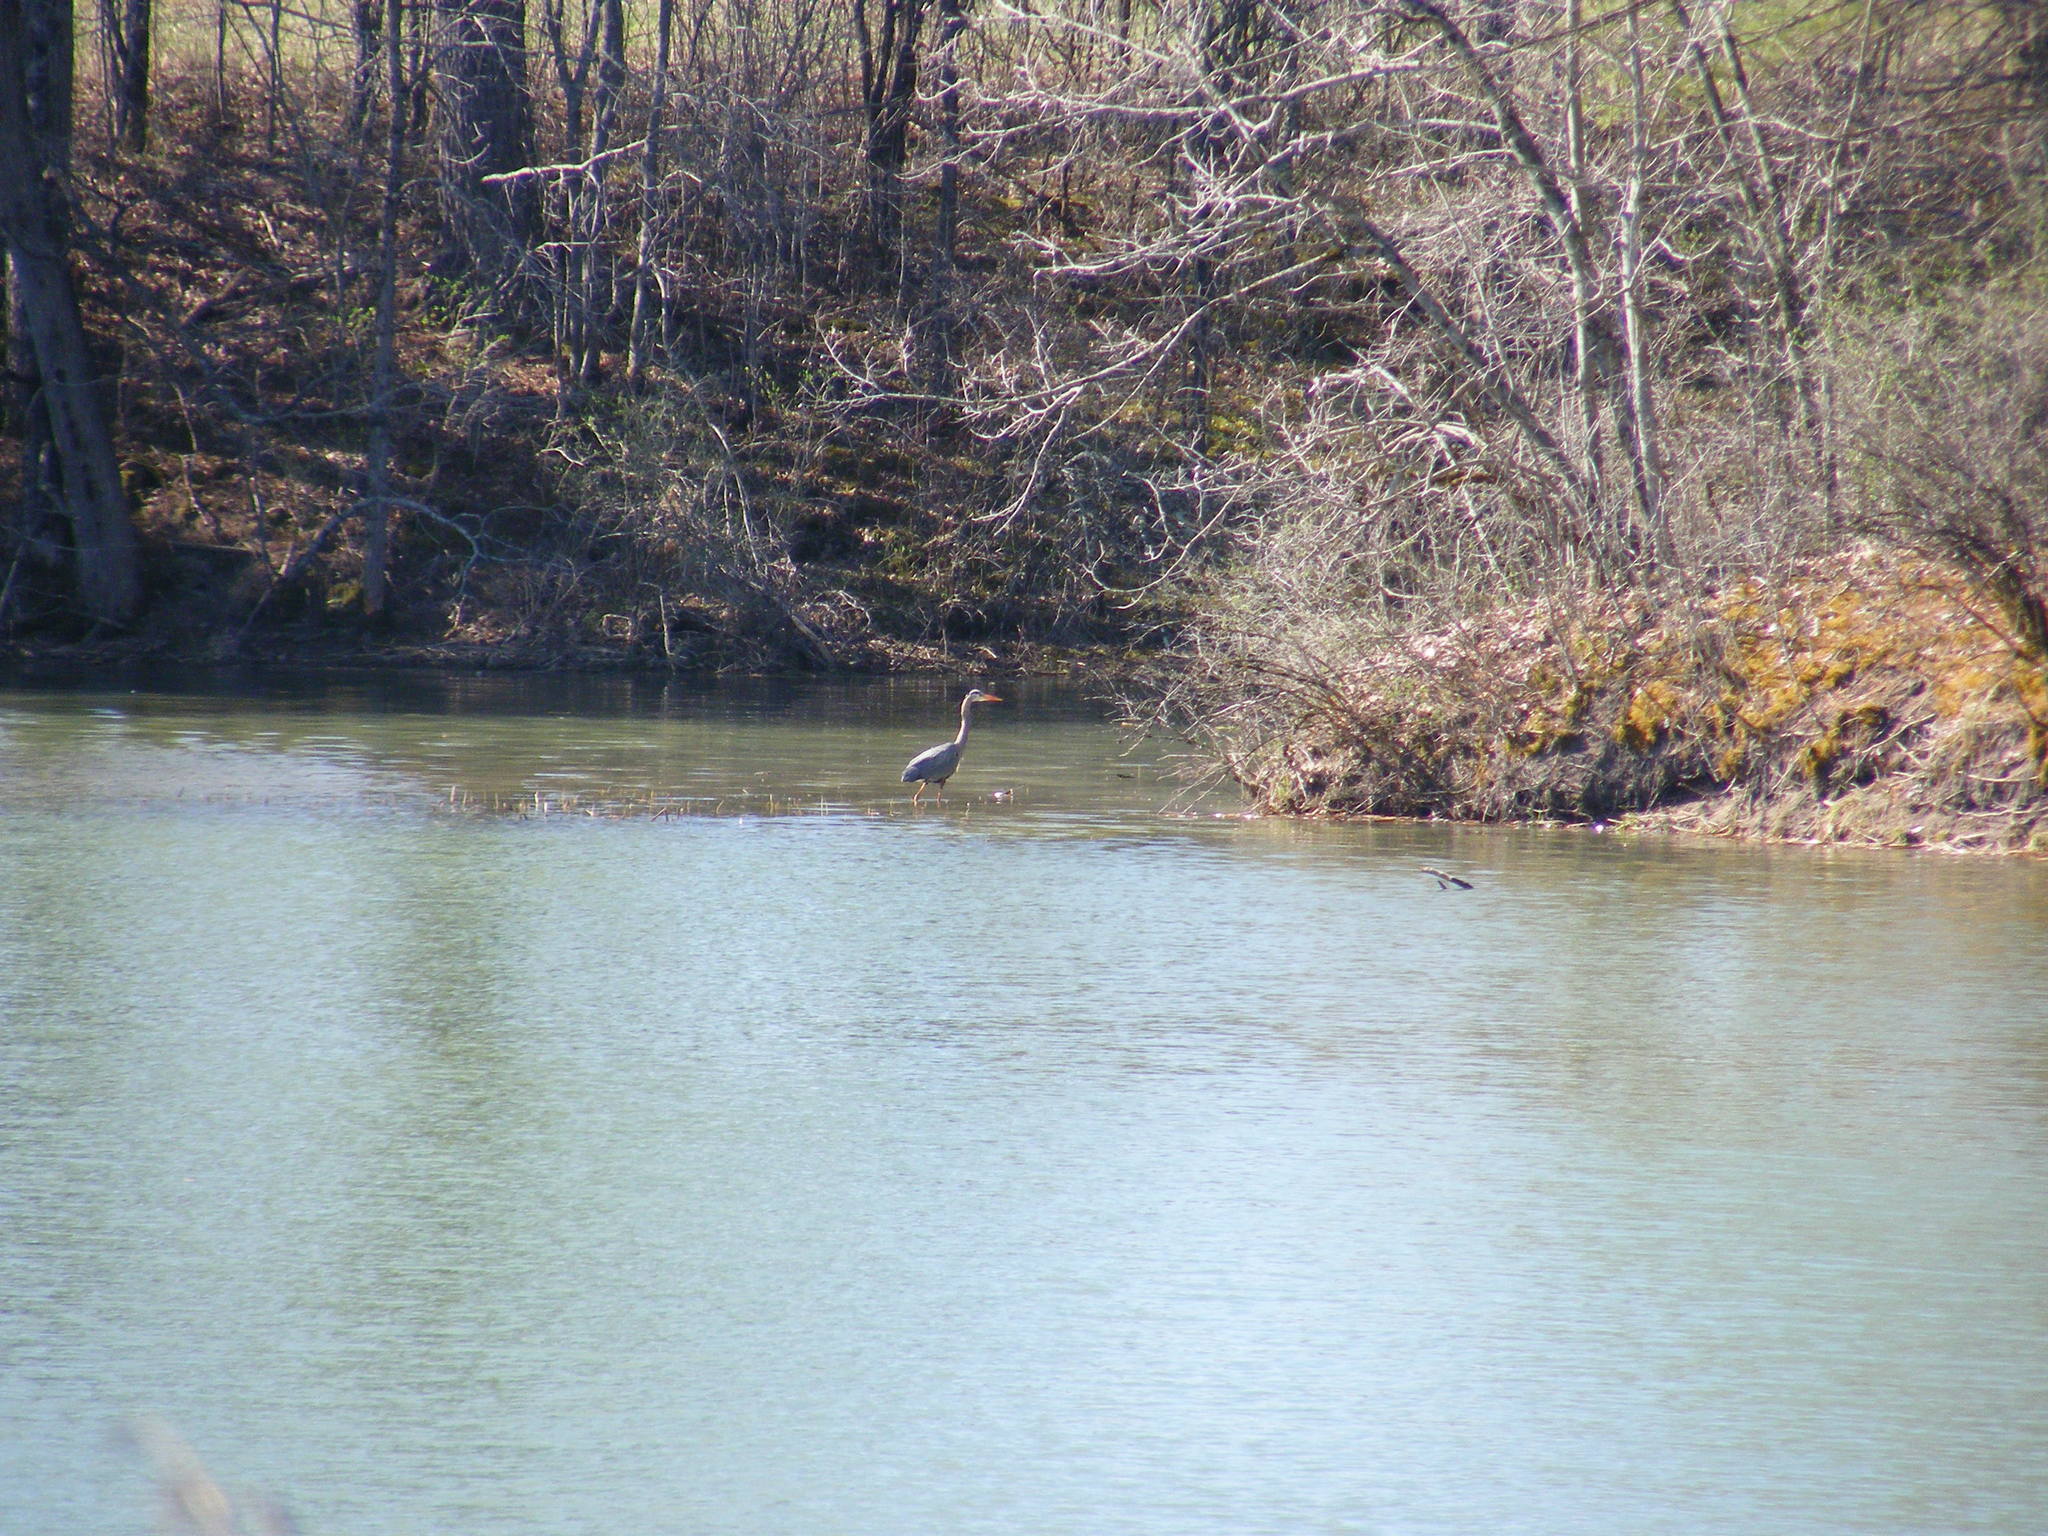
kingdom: Animalia
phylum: Chordata
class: Aves
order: Pelecaniformes
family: Ardeidae
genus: Ardea
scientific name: Ardea herodias
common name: Great blue heron
